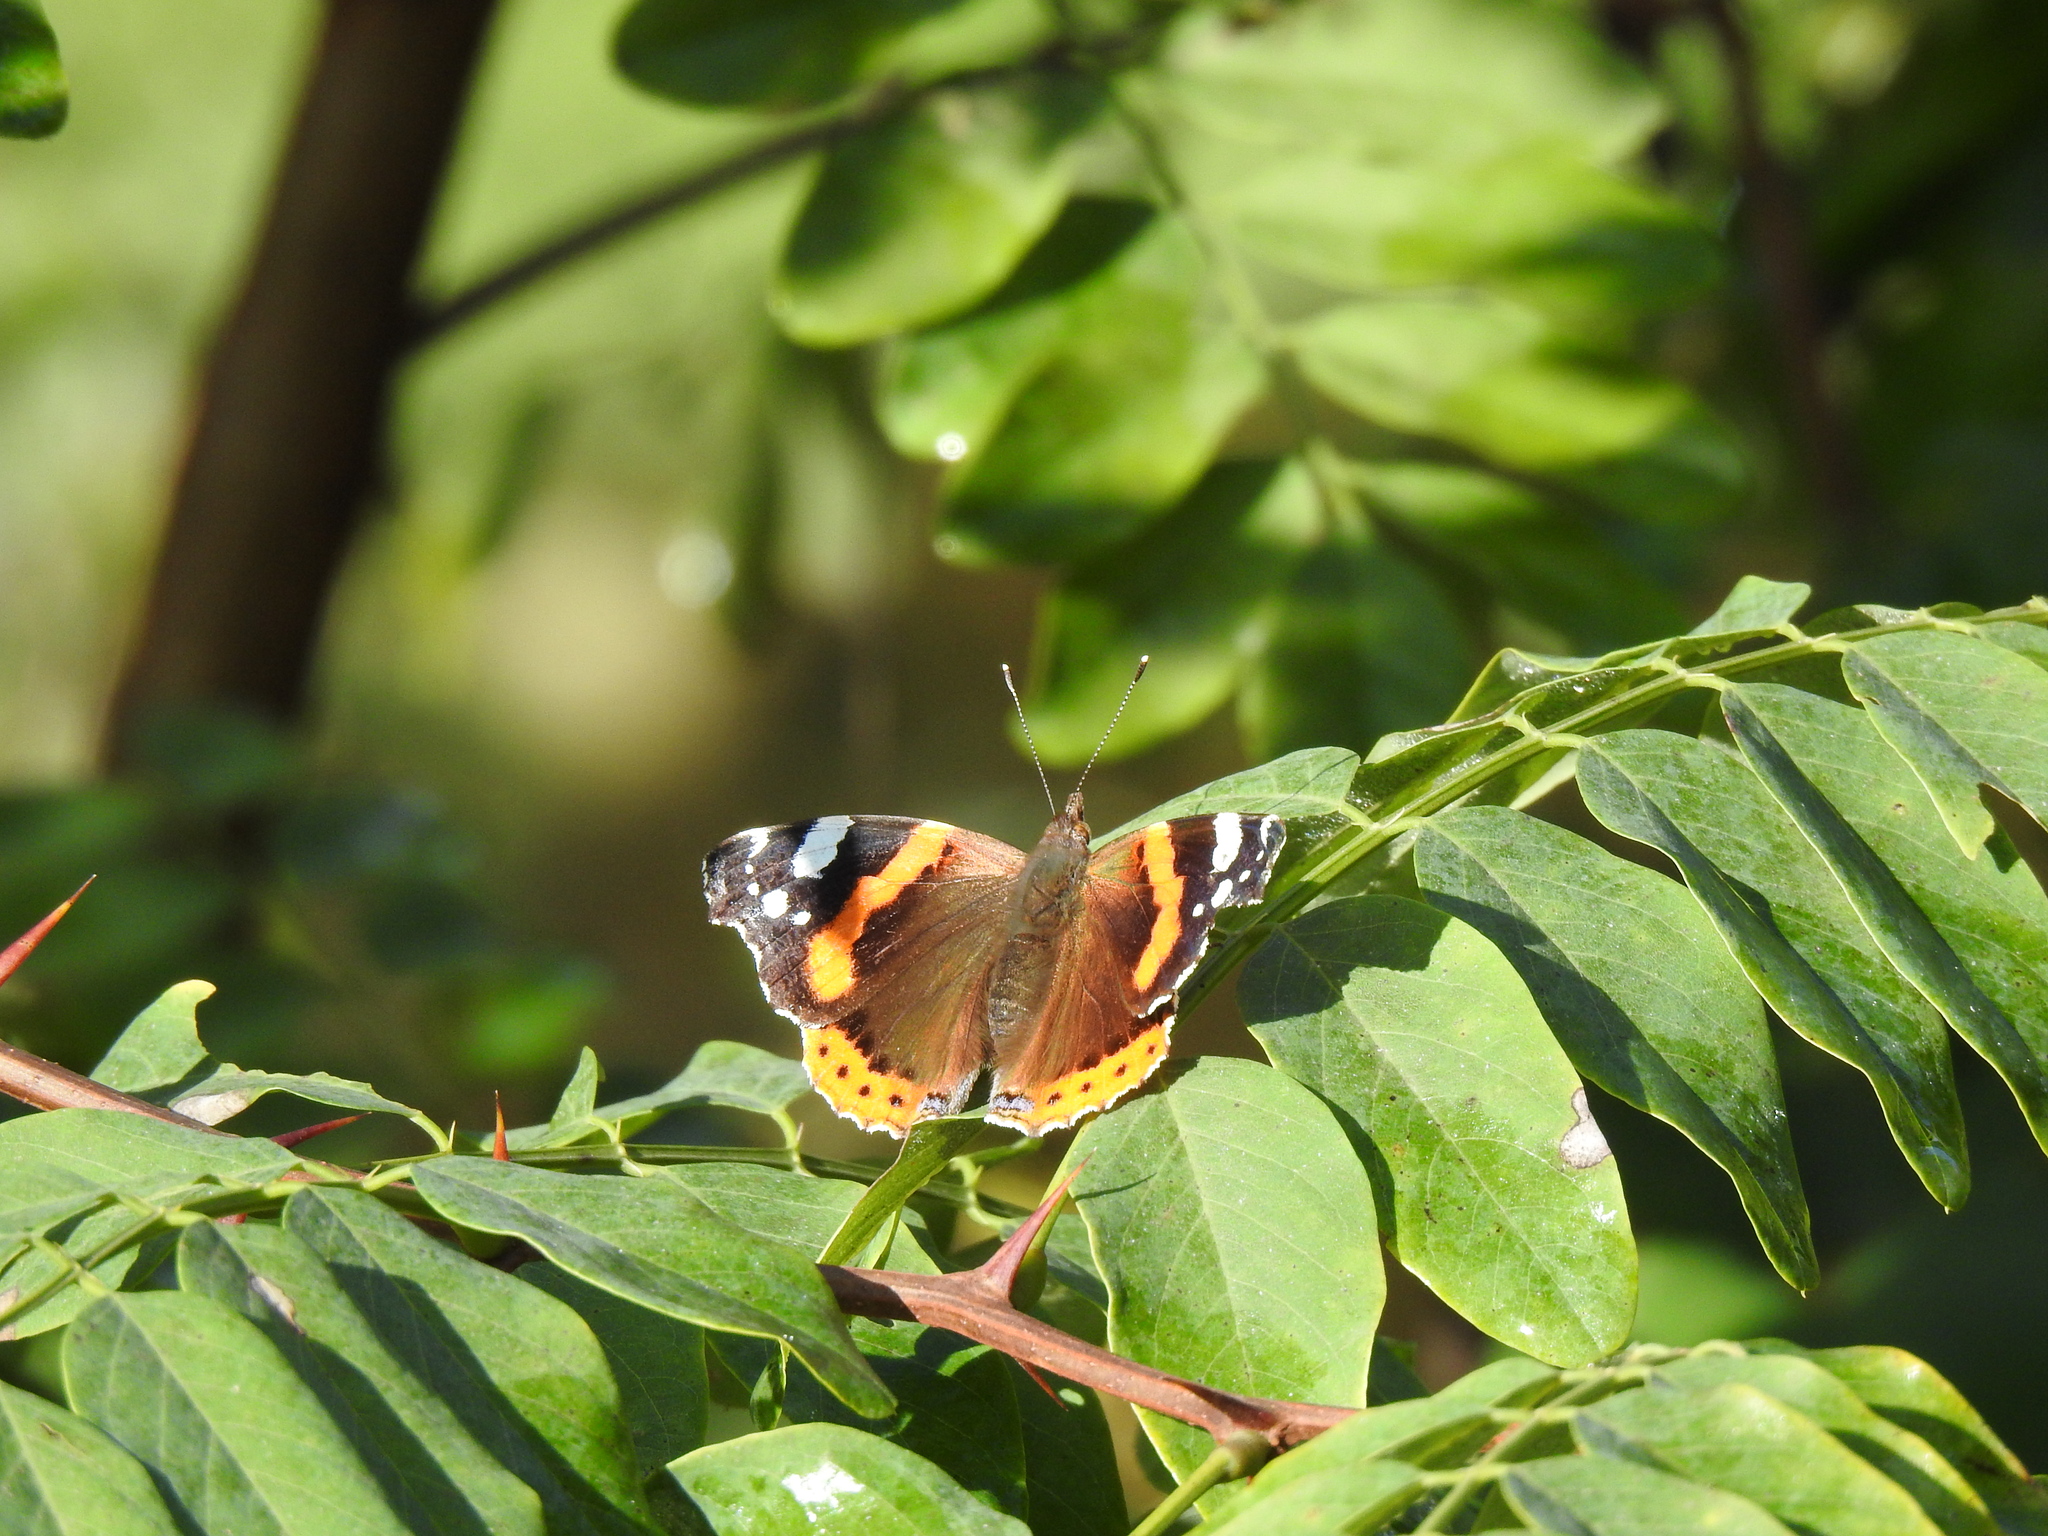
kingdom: Animalia
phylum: Arthropoda
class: Insecta
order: Lepidoptera
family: Nymphalidae
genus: Vanessa
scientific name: Vanessa atalanta
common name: Red admiral
